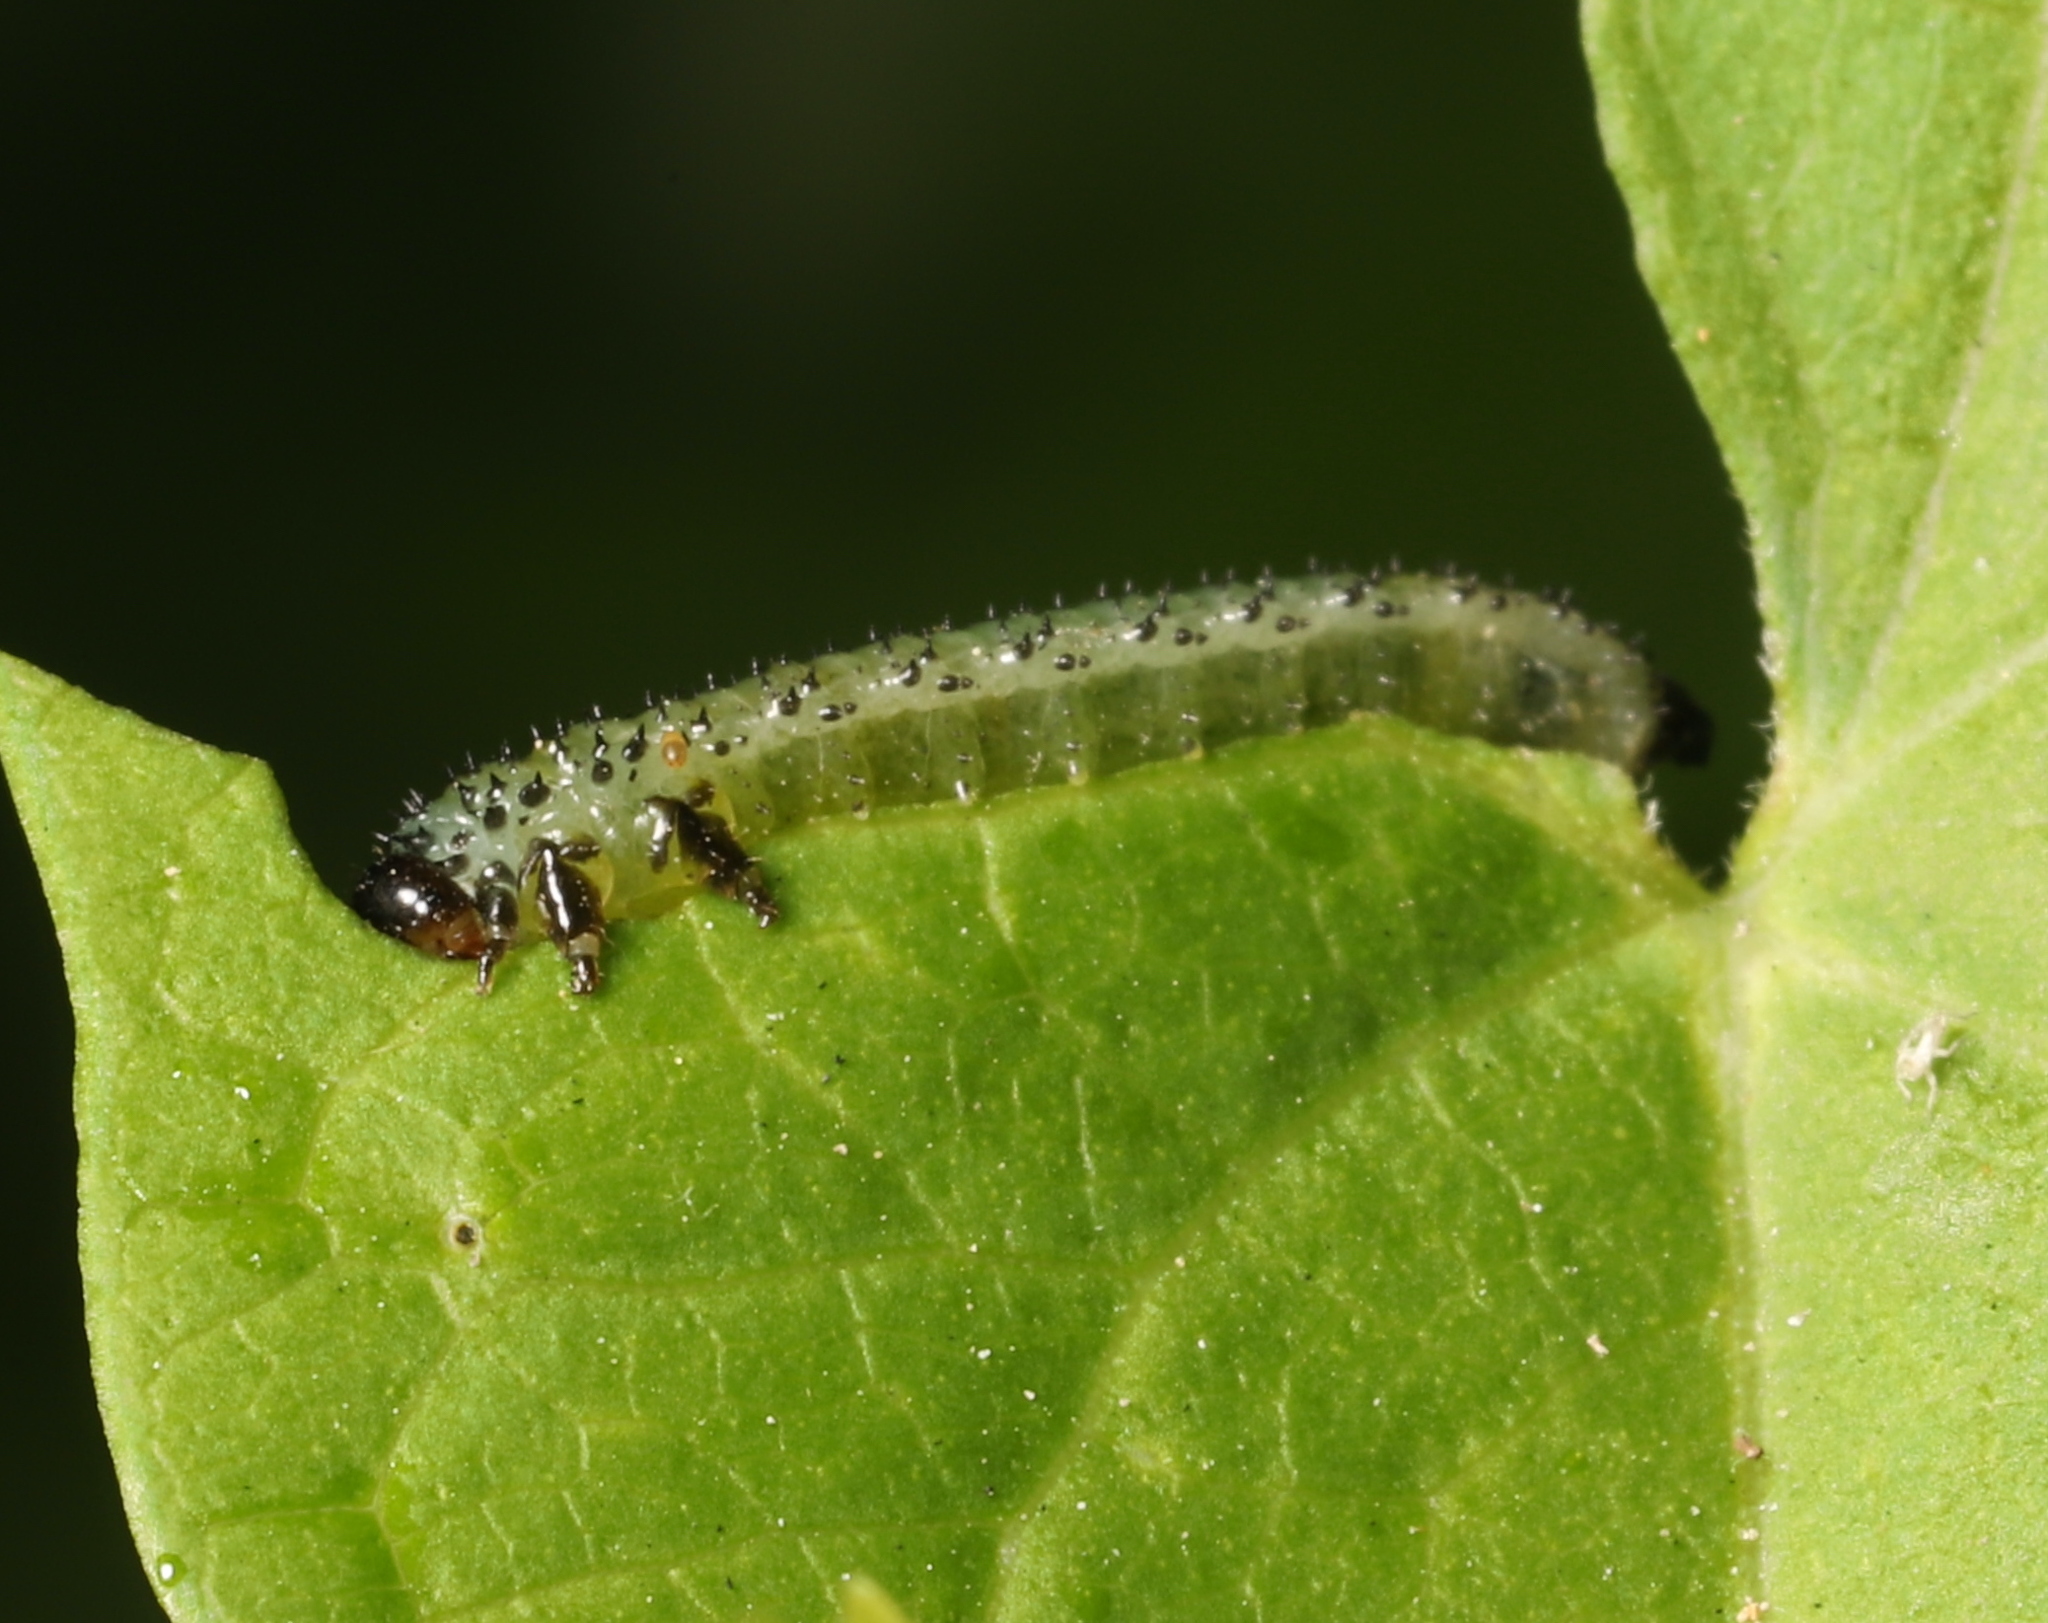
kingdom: Animalia
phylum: Arthropoda
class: Insecta
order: Hymenoptera
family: Argidae
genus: Sphacophilus
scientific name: Sphacophilus cellularis
